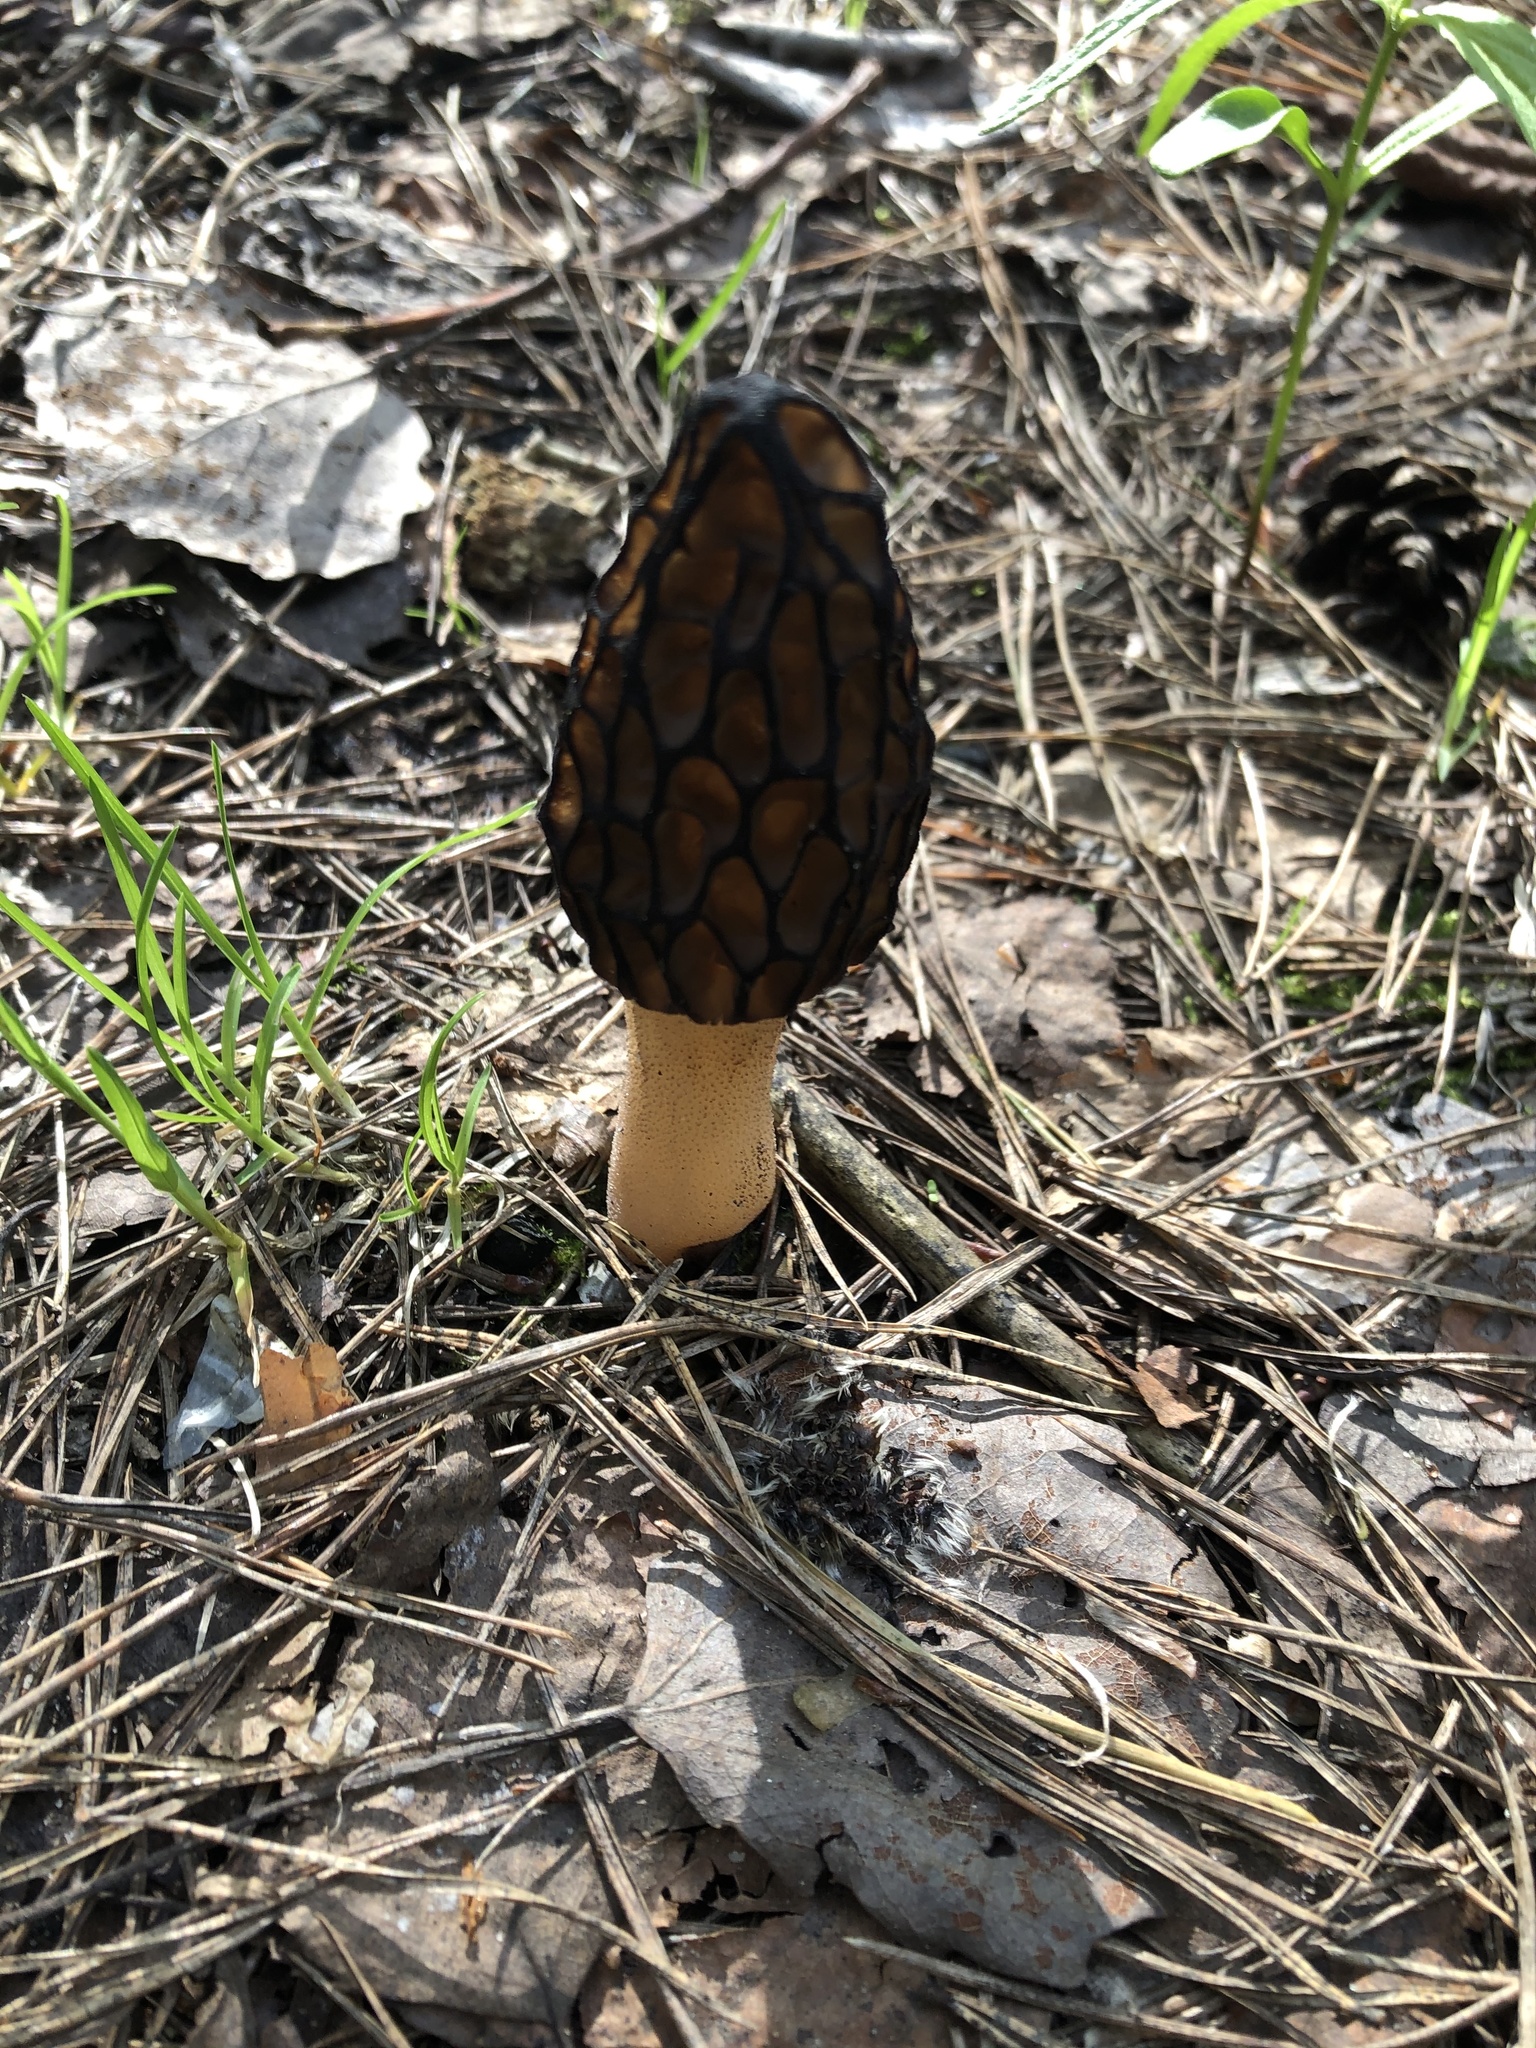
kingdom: Fungi
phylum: Ascomycota
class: Pezizomycetes
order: Pezizales
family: Morchellaceae
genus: Morchella
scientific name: Morchella
